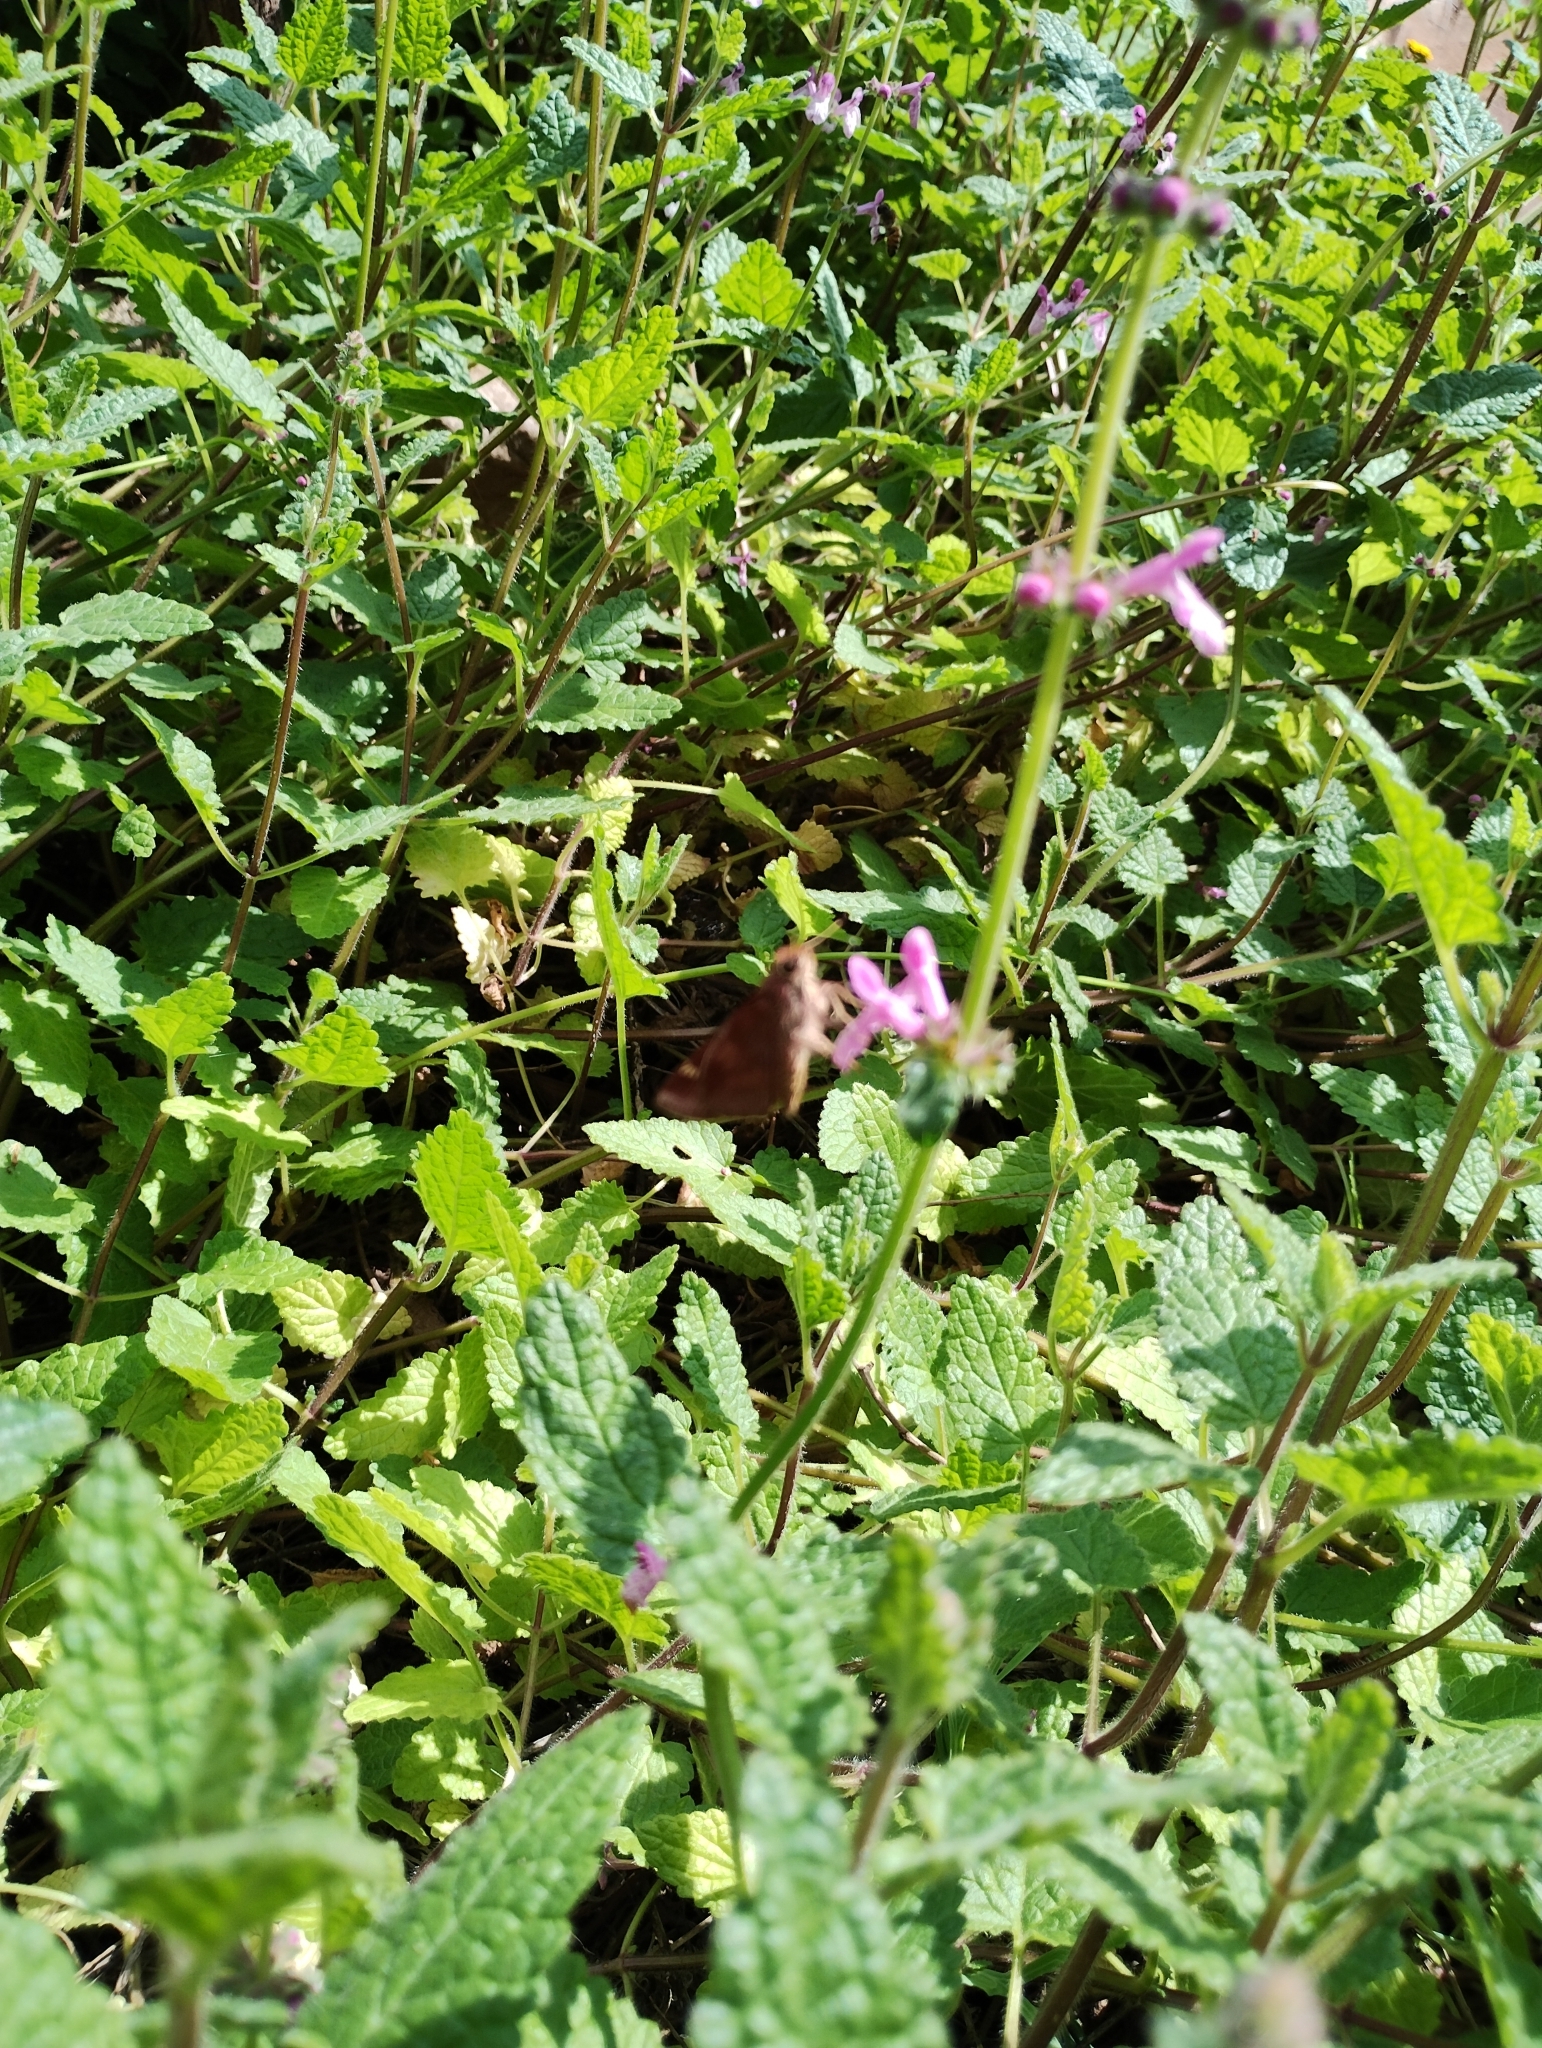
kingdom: Animalia
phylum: Arthropoda
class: Insecta
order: Lepidoptera
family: Hesperiidae
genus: Lon
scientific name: Lon melane
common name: Umber skipper
